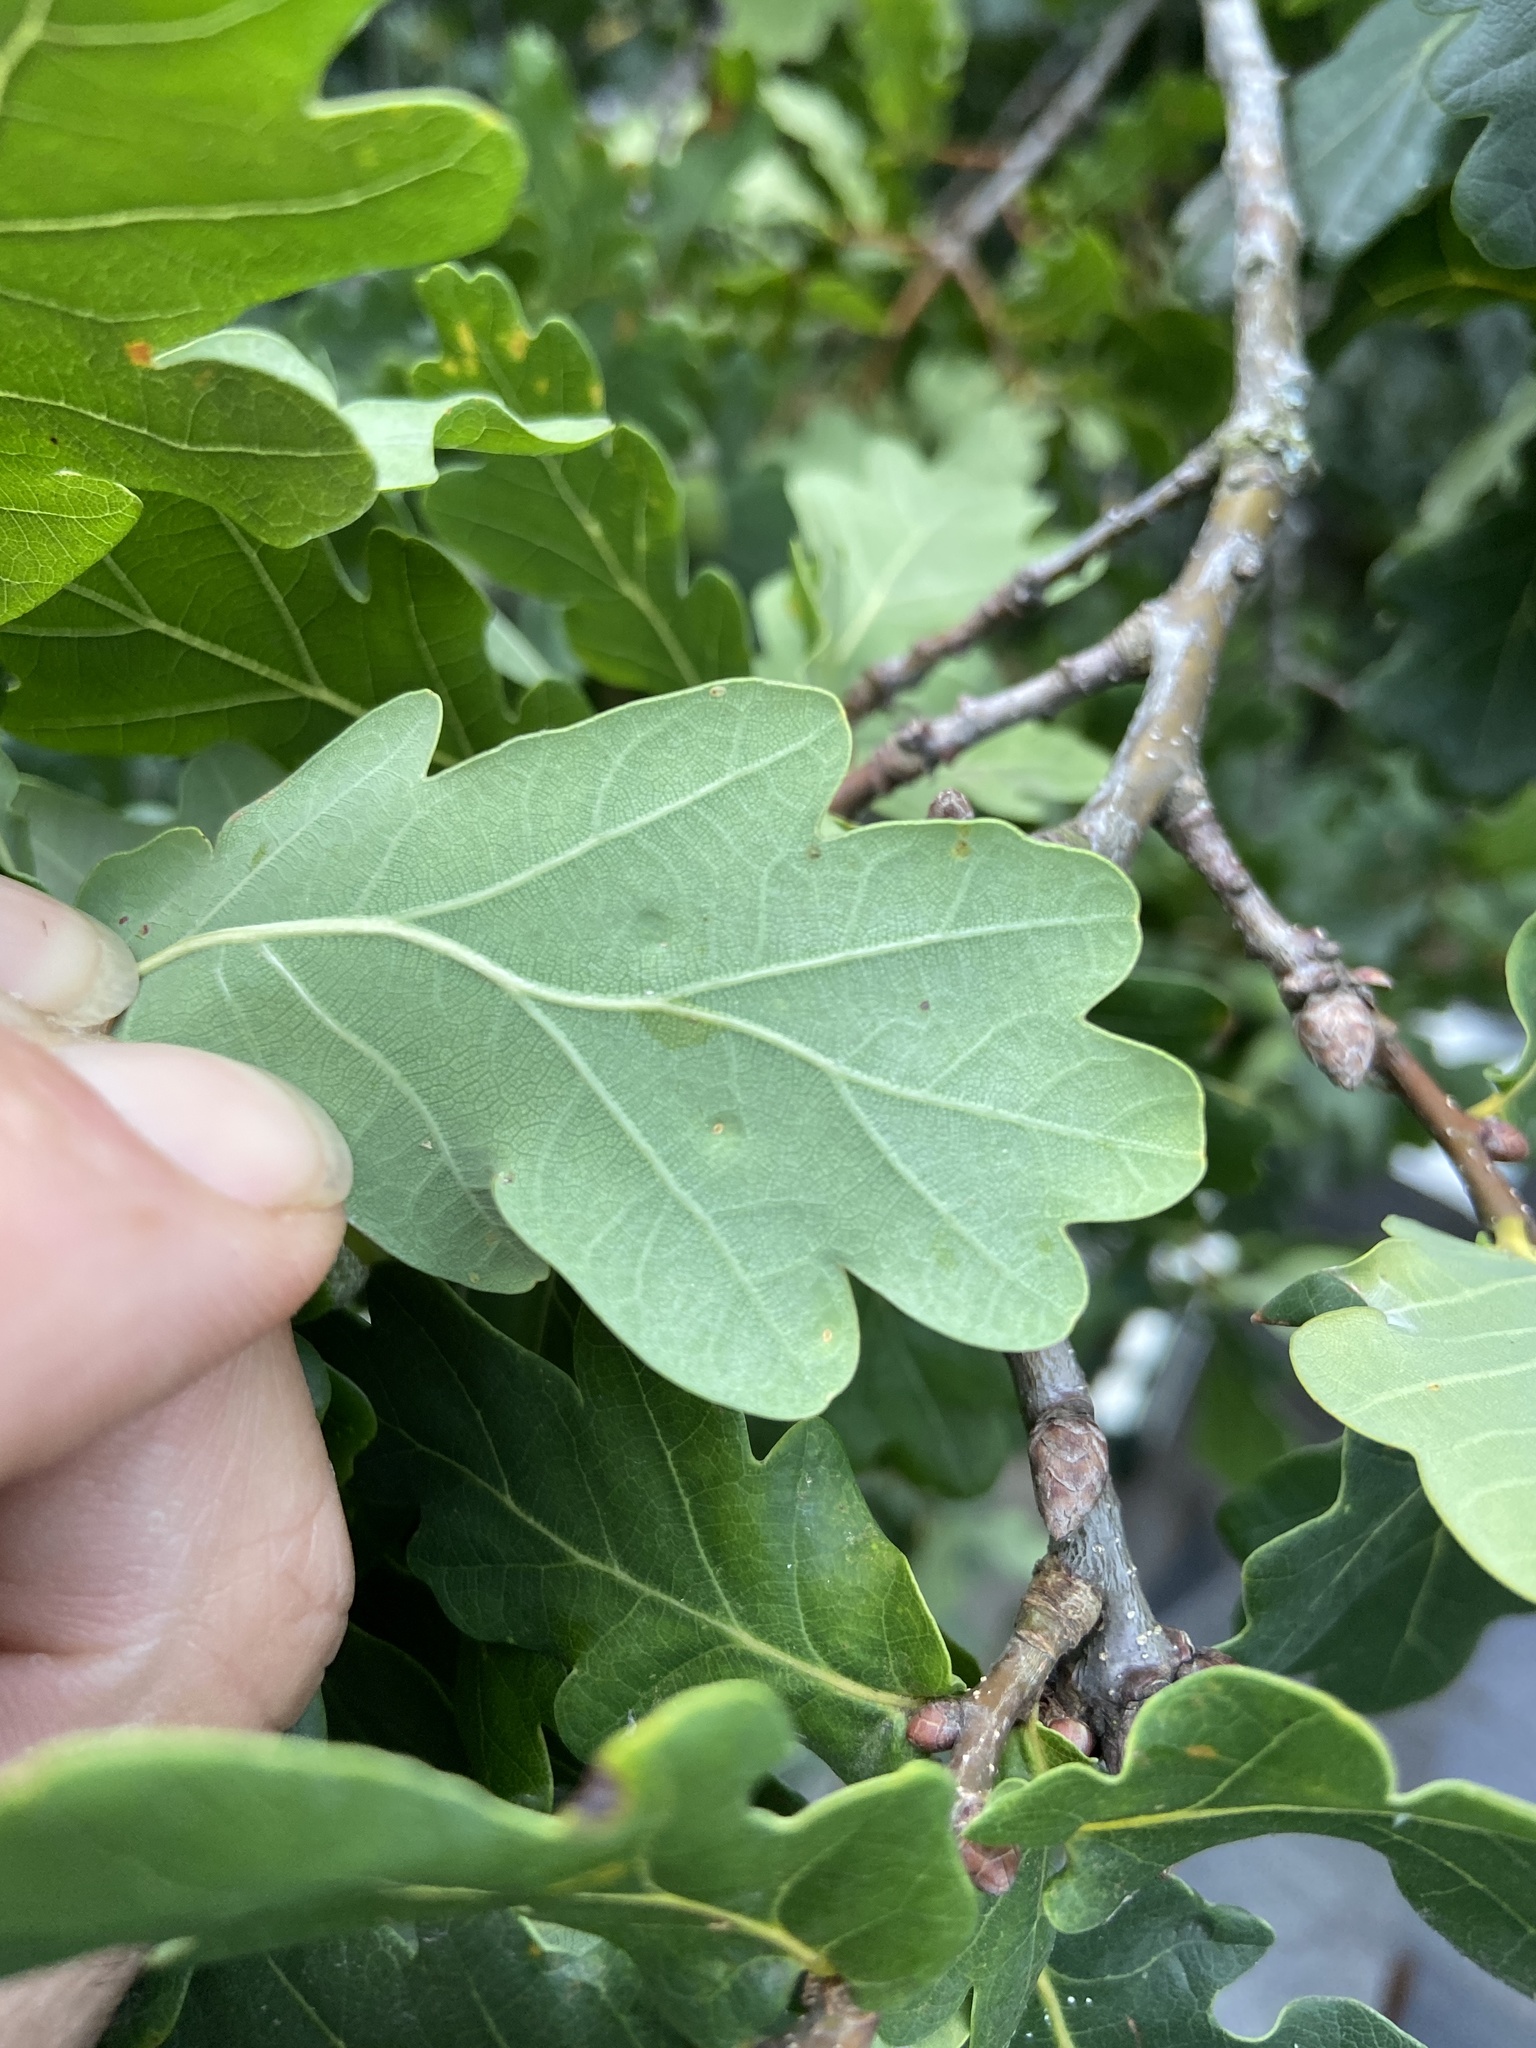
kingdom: Animalia
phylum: Arthropoda
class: Insecta
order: Hemiptera
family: Triozidae
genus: Trioza
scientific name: Trioza remota
